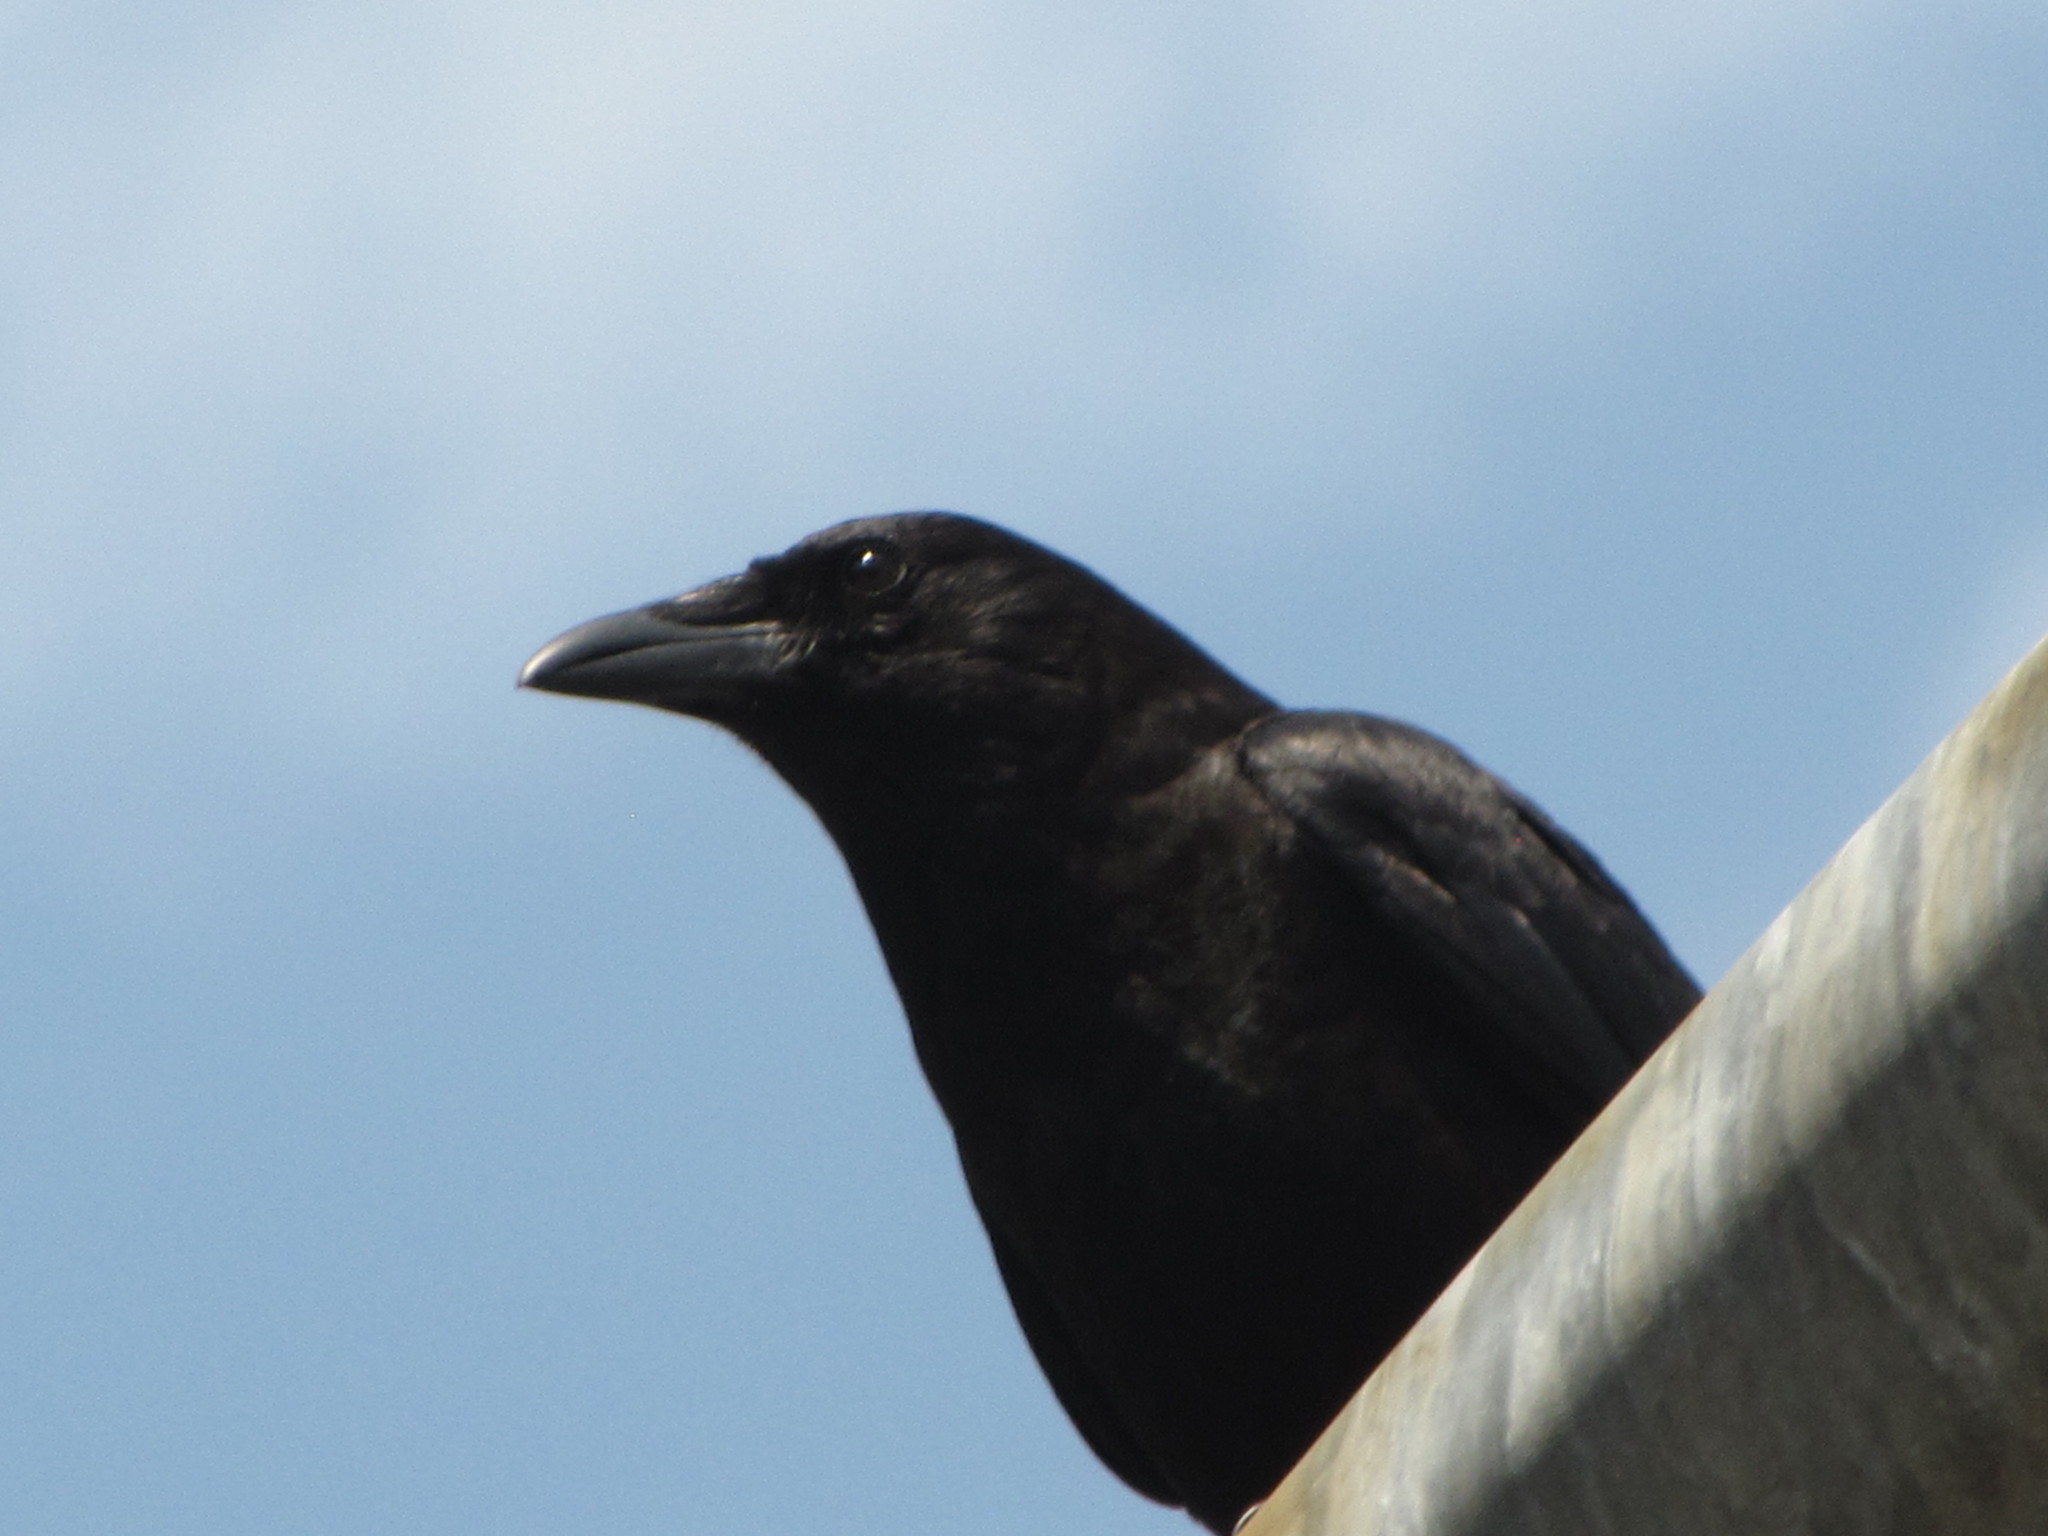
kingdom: Animalia
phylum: Chordata
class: Aves
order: Passeriformes
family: Corvidae
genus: Corvus
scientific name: Corvus brachyrhynchos
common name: American crow
